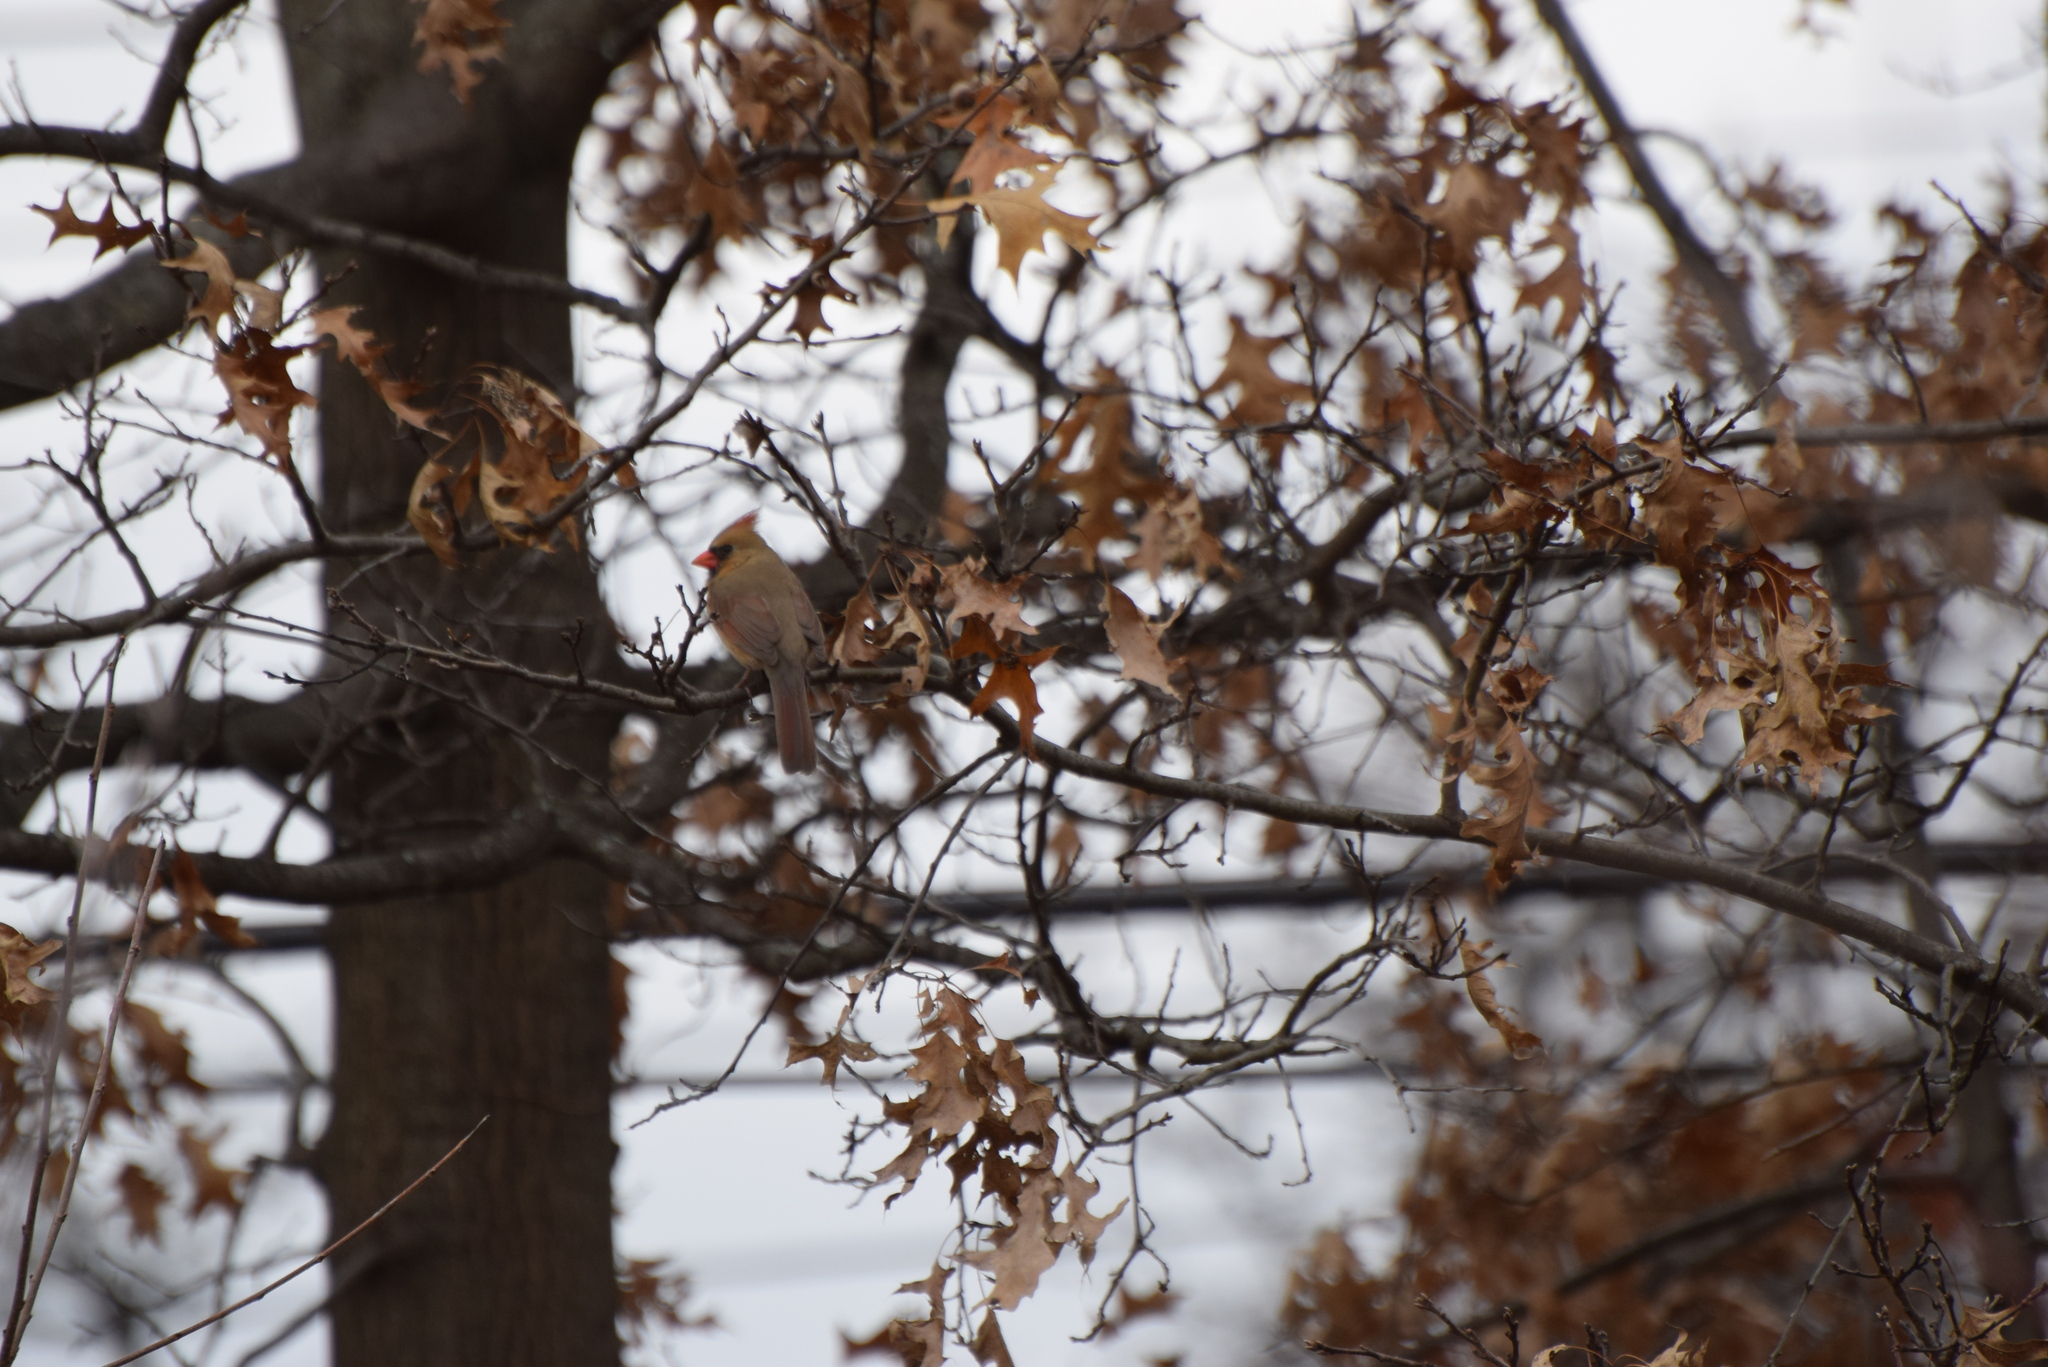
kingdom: Animalia
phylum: Chordata
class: Aves
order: Passeriformes
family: Cardinalidae
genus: Cardinalis
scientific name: Cardinalis cardinalis
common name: Northern cardinal
